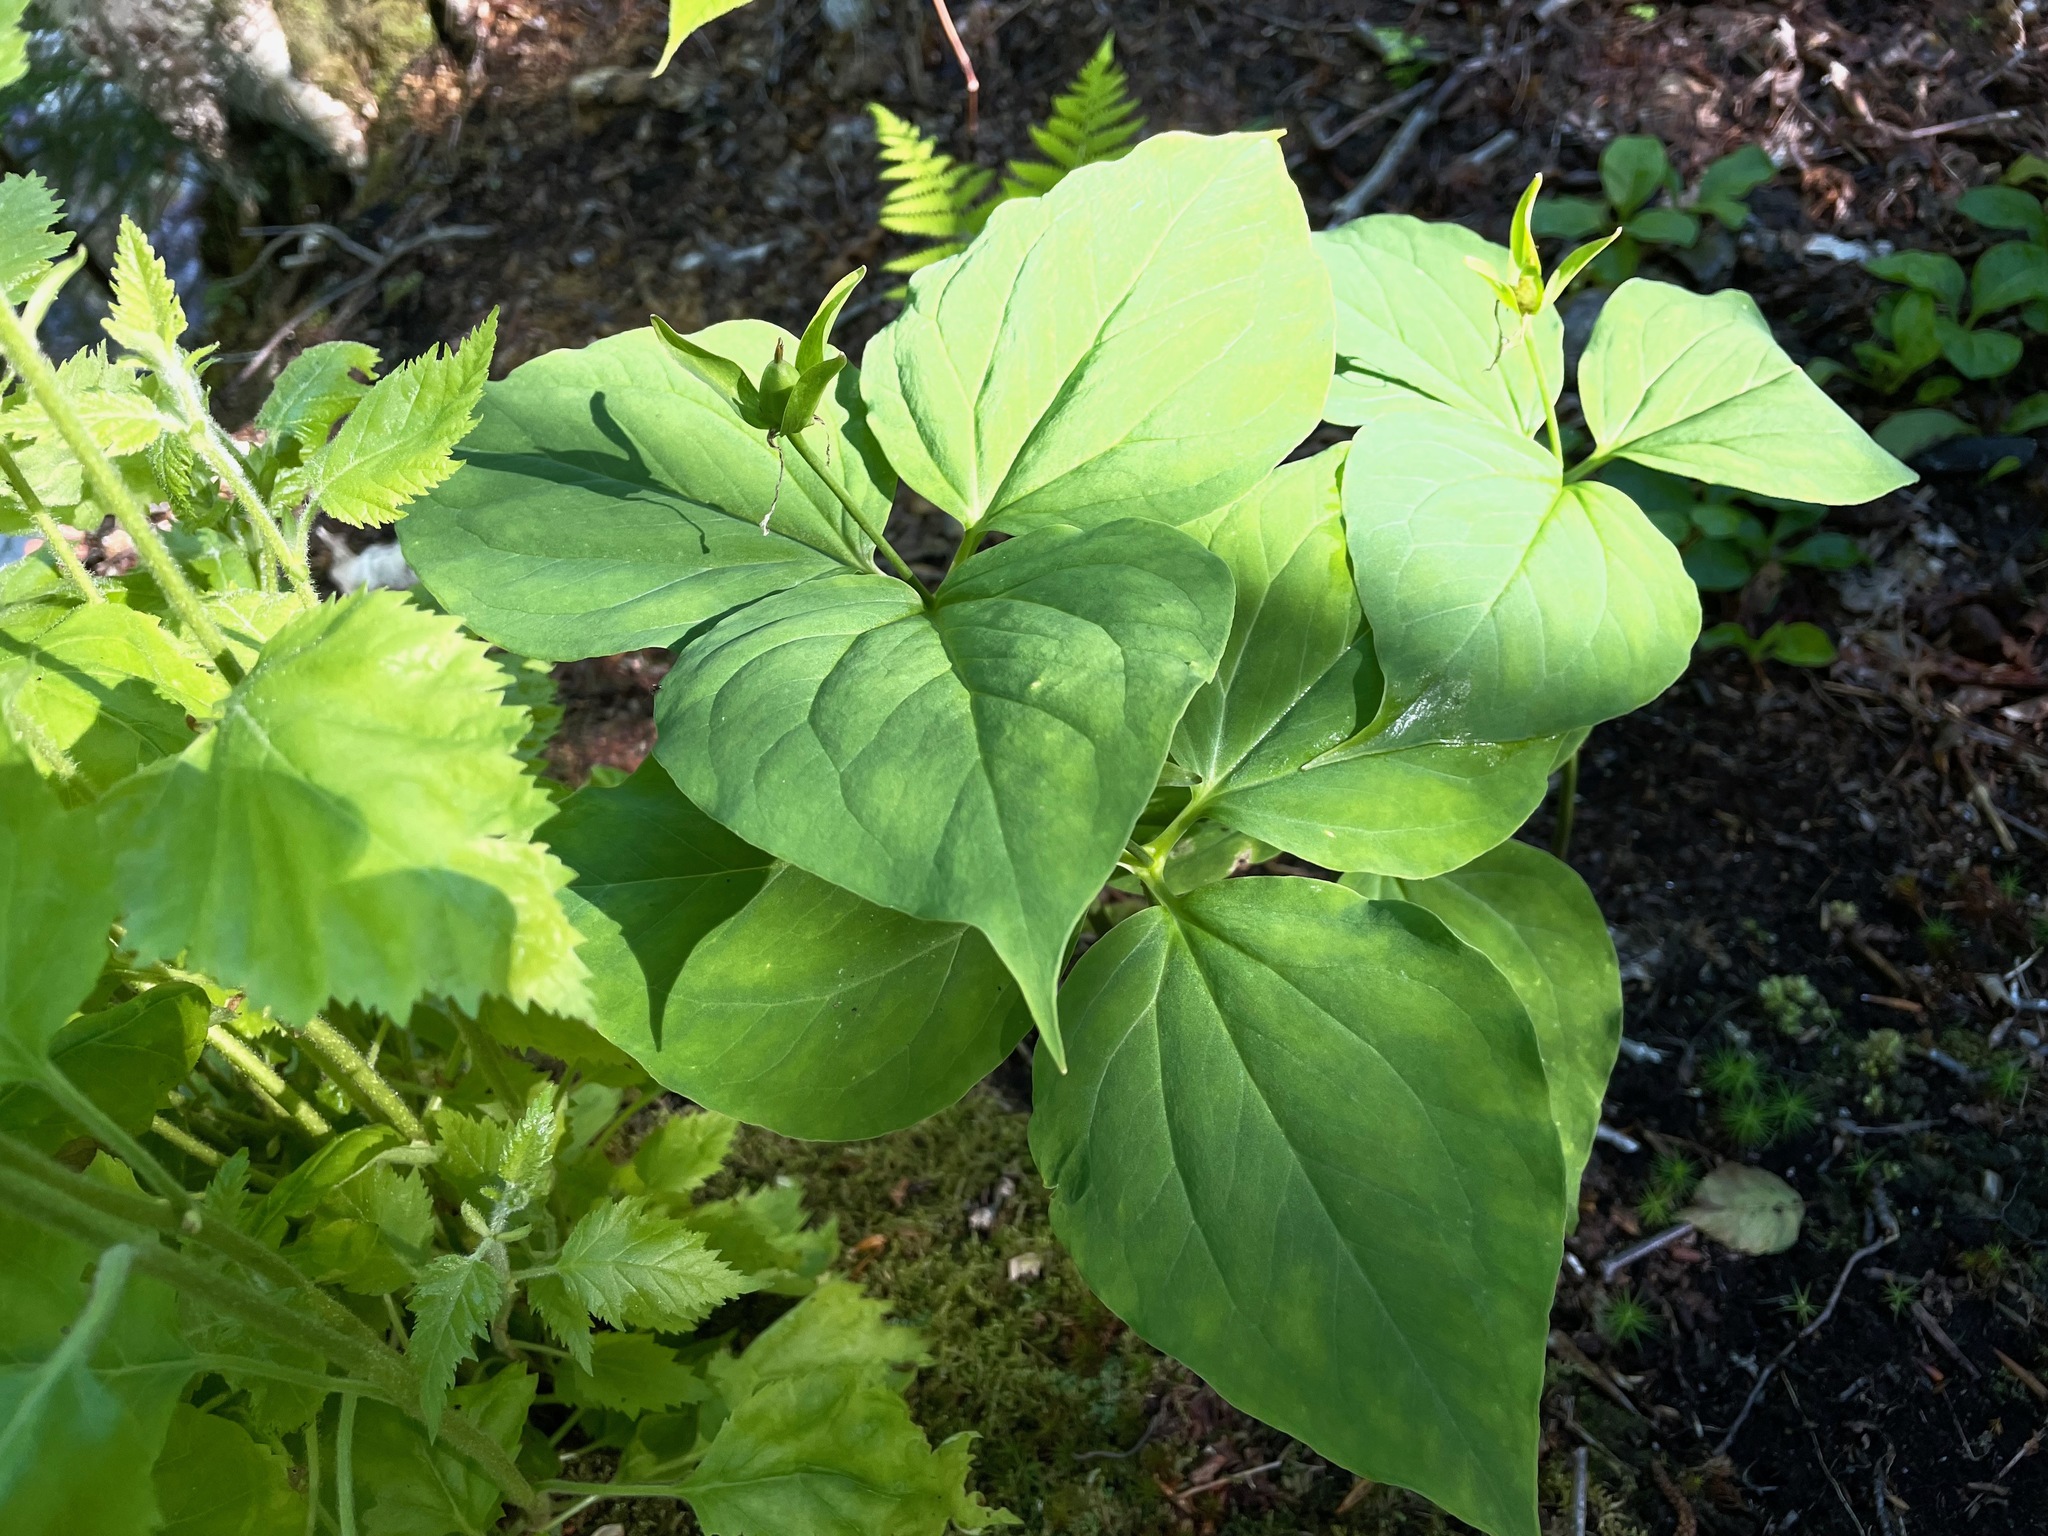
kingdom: Plantae
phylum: Tracheophyta
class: Liliopsida
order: Liliales
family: Melanthiaceae
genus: Trillium
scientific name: Trillium undulatum
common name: Paint trillium
